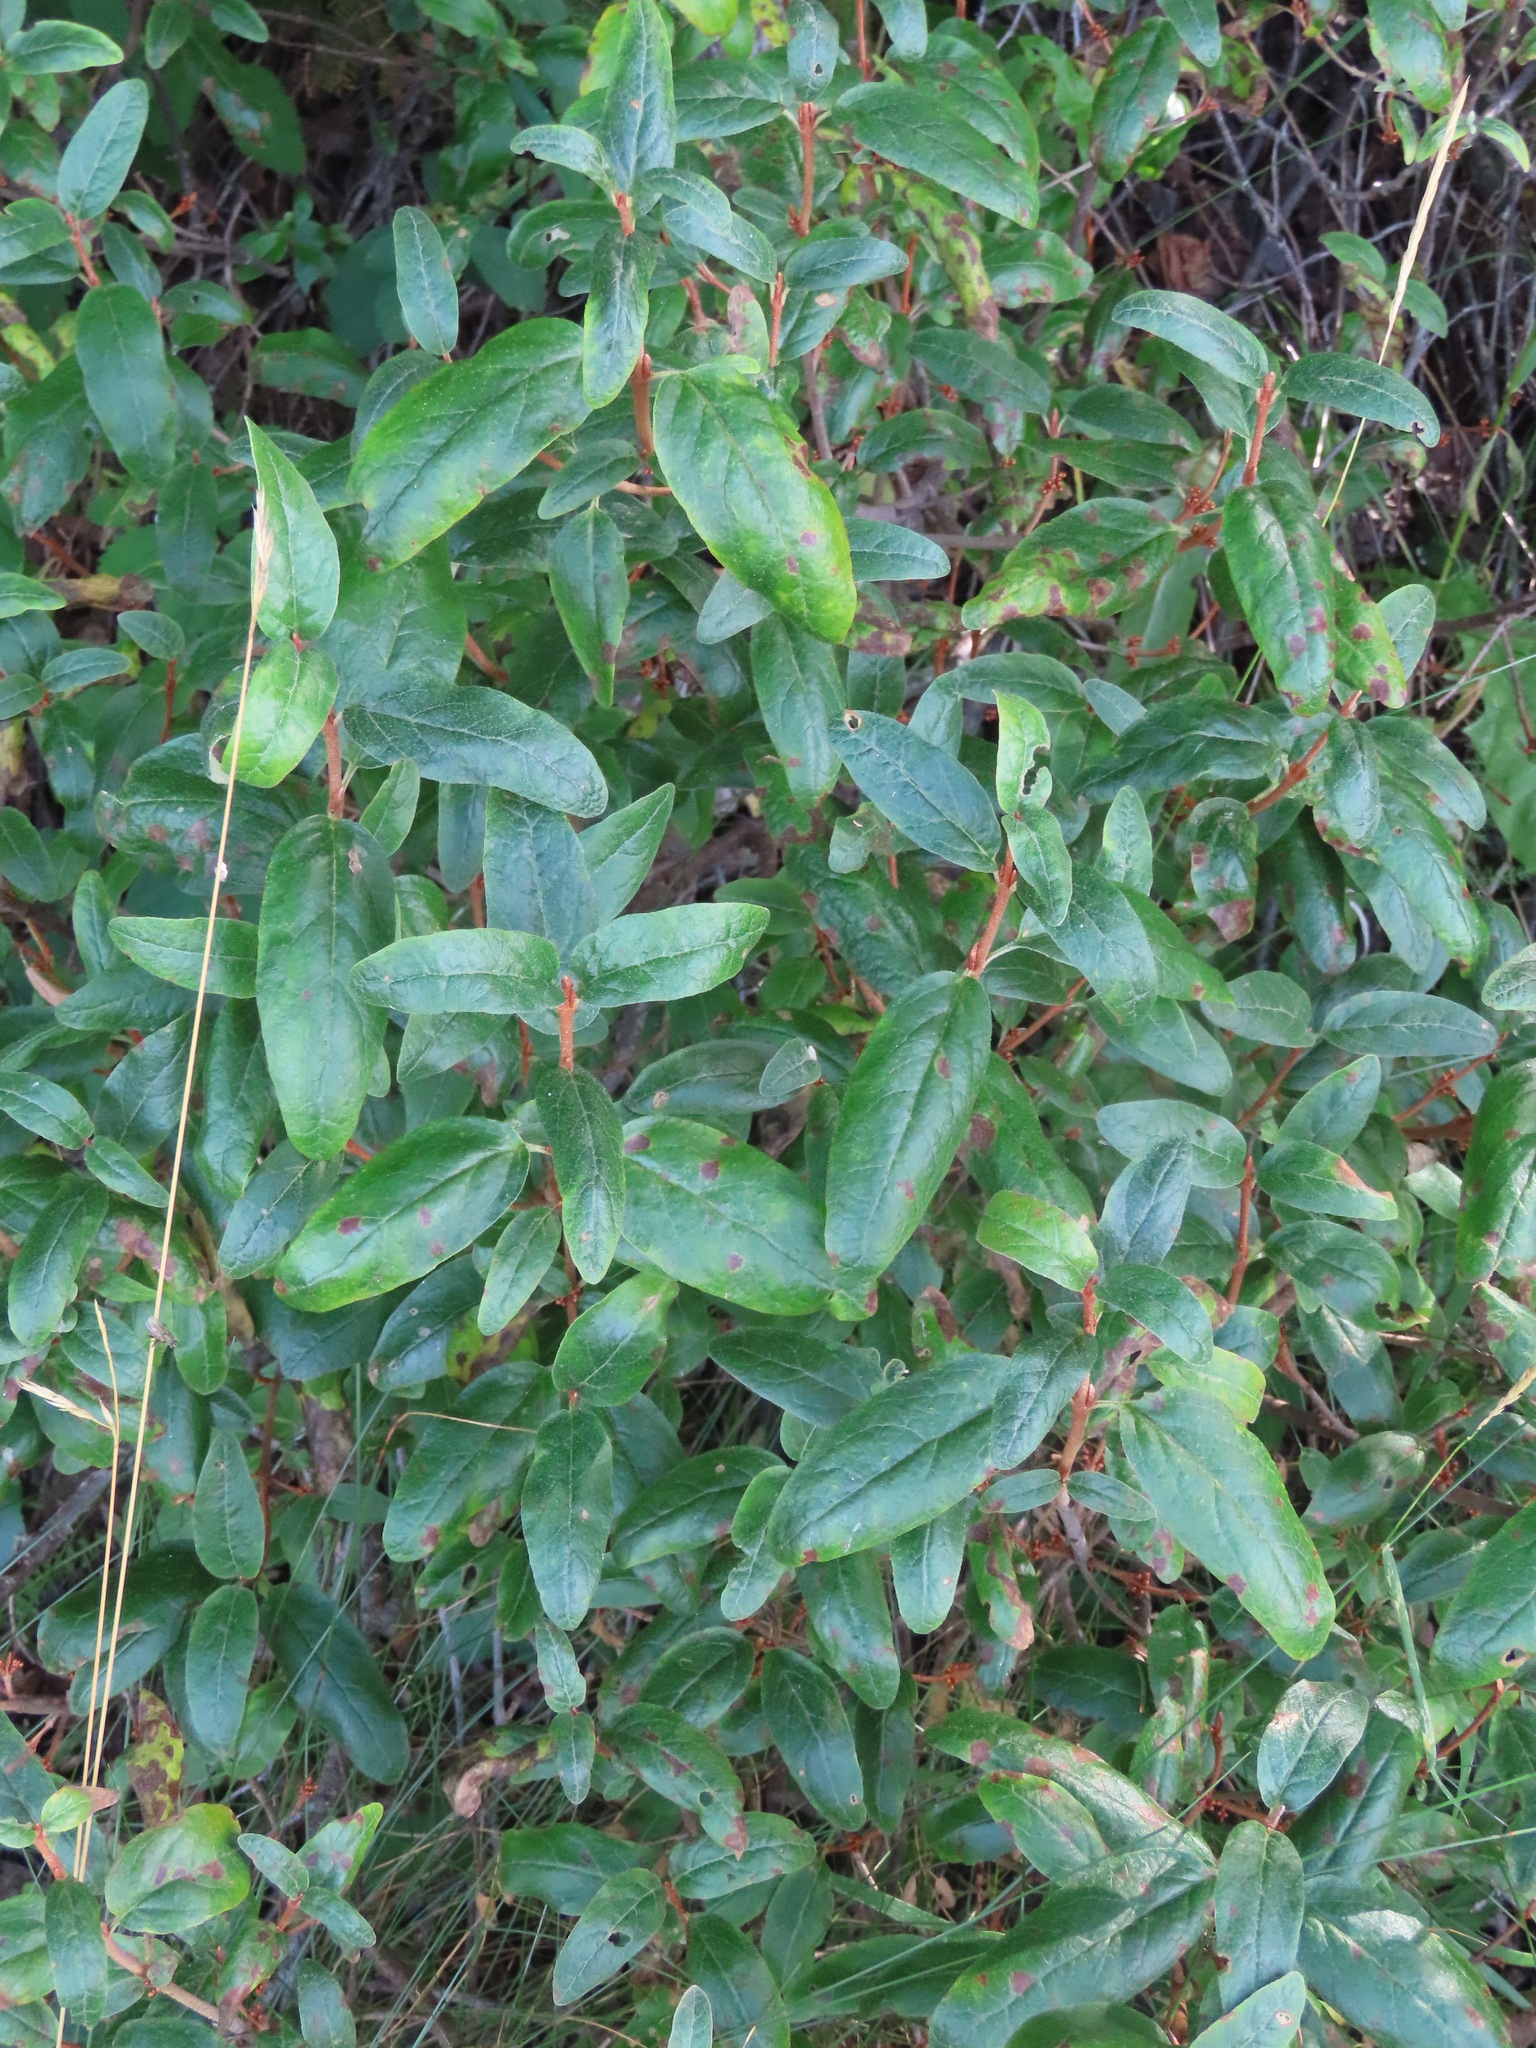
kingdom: Plantae
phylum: Tracheophyta
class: Magnoliopsida
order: Rosales
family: Elaeagnaceae
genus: Shepherdia
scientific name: Shepherdia canadensis
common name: Soapberry
